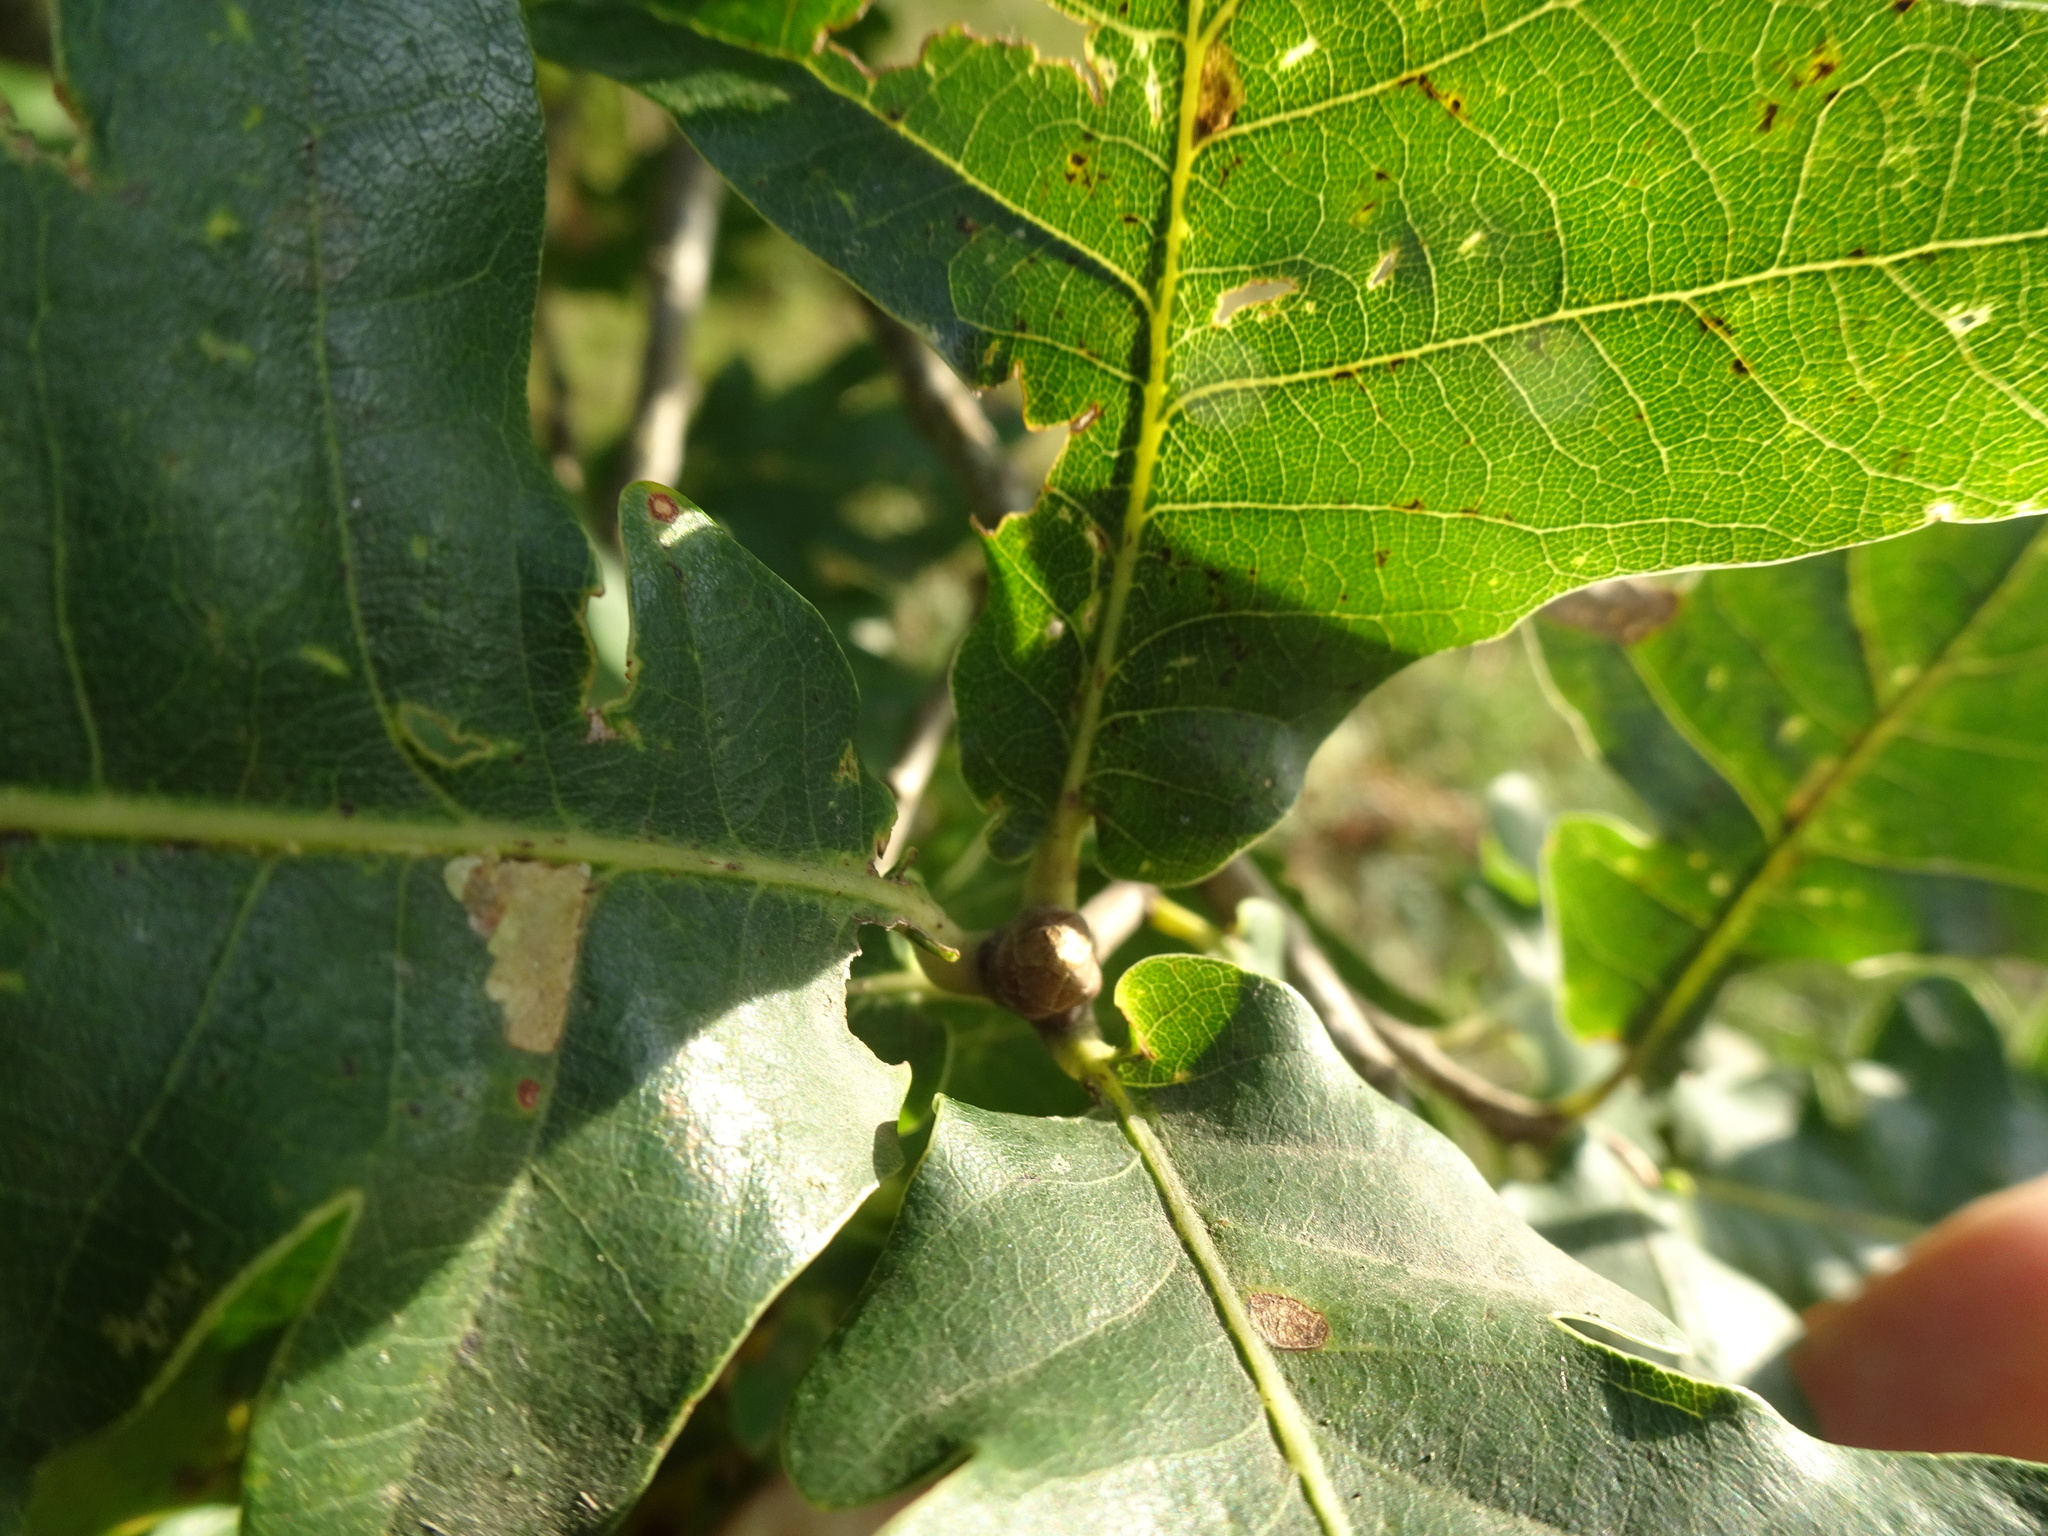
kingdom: Plantae
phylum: Tracheophyta
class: Magnoliopsida
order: Fagales
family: Fagaceae
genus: Quercus
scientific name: Quercus robur
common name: Pedunculate oak
